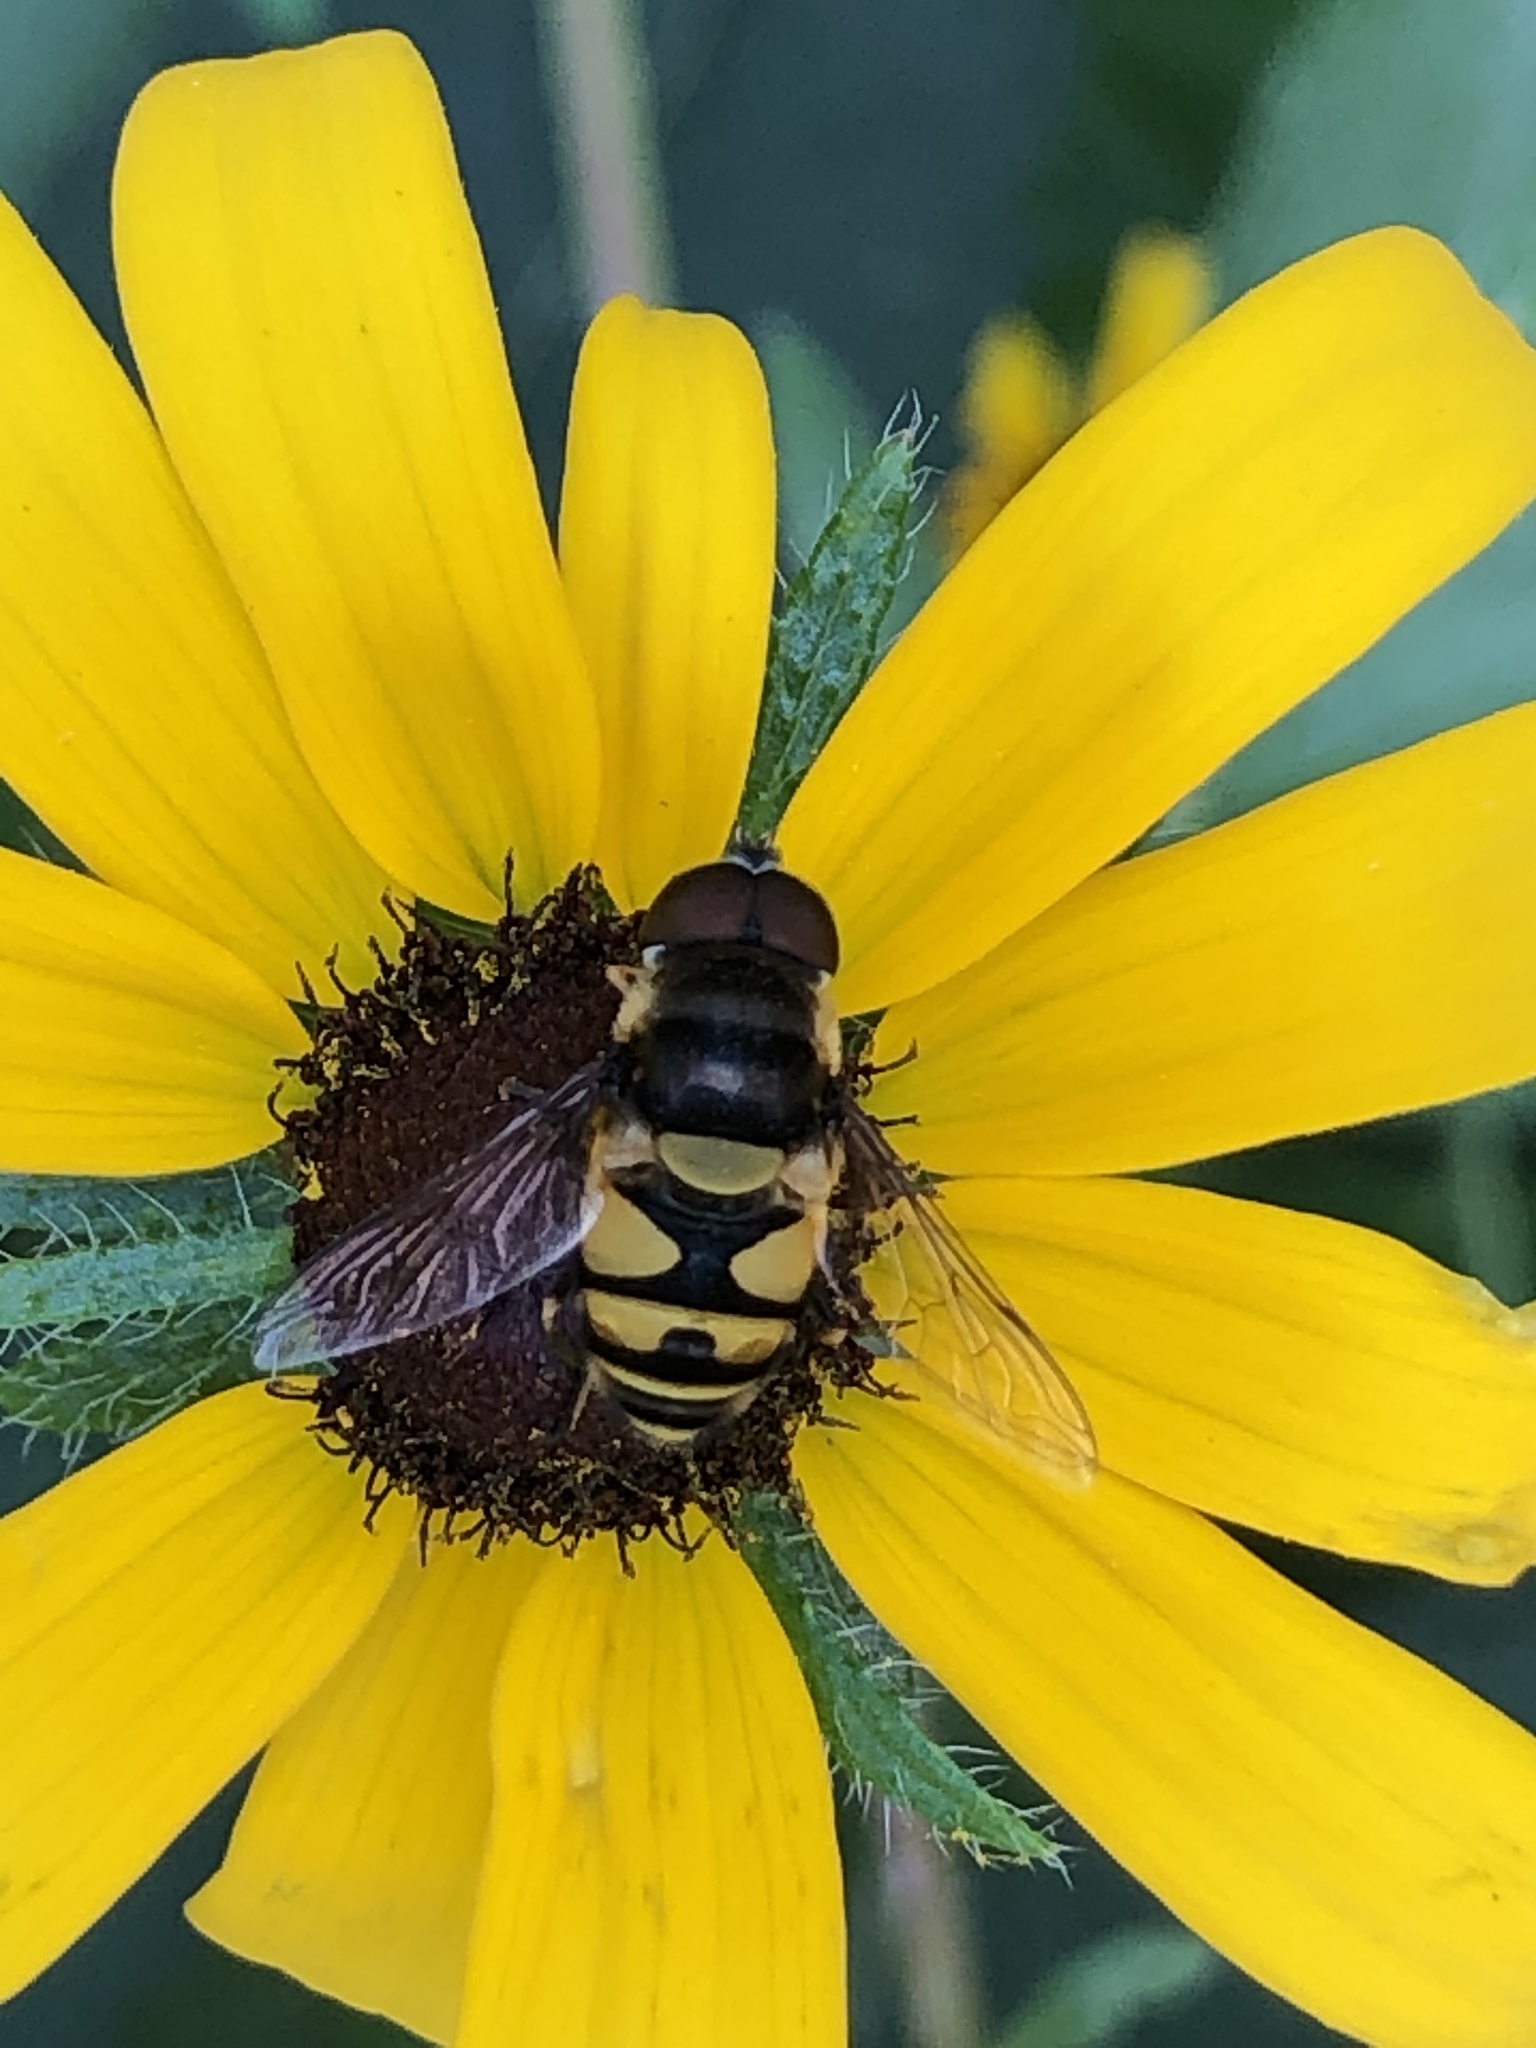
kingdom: Animalia
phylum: Arthropoda
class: Insecta
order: Diptera
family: Syrphidae
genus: Eristalis
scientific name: Eristalis transversa
